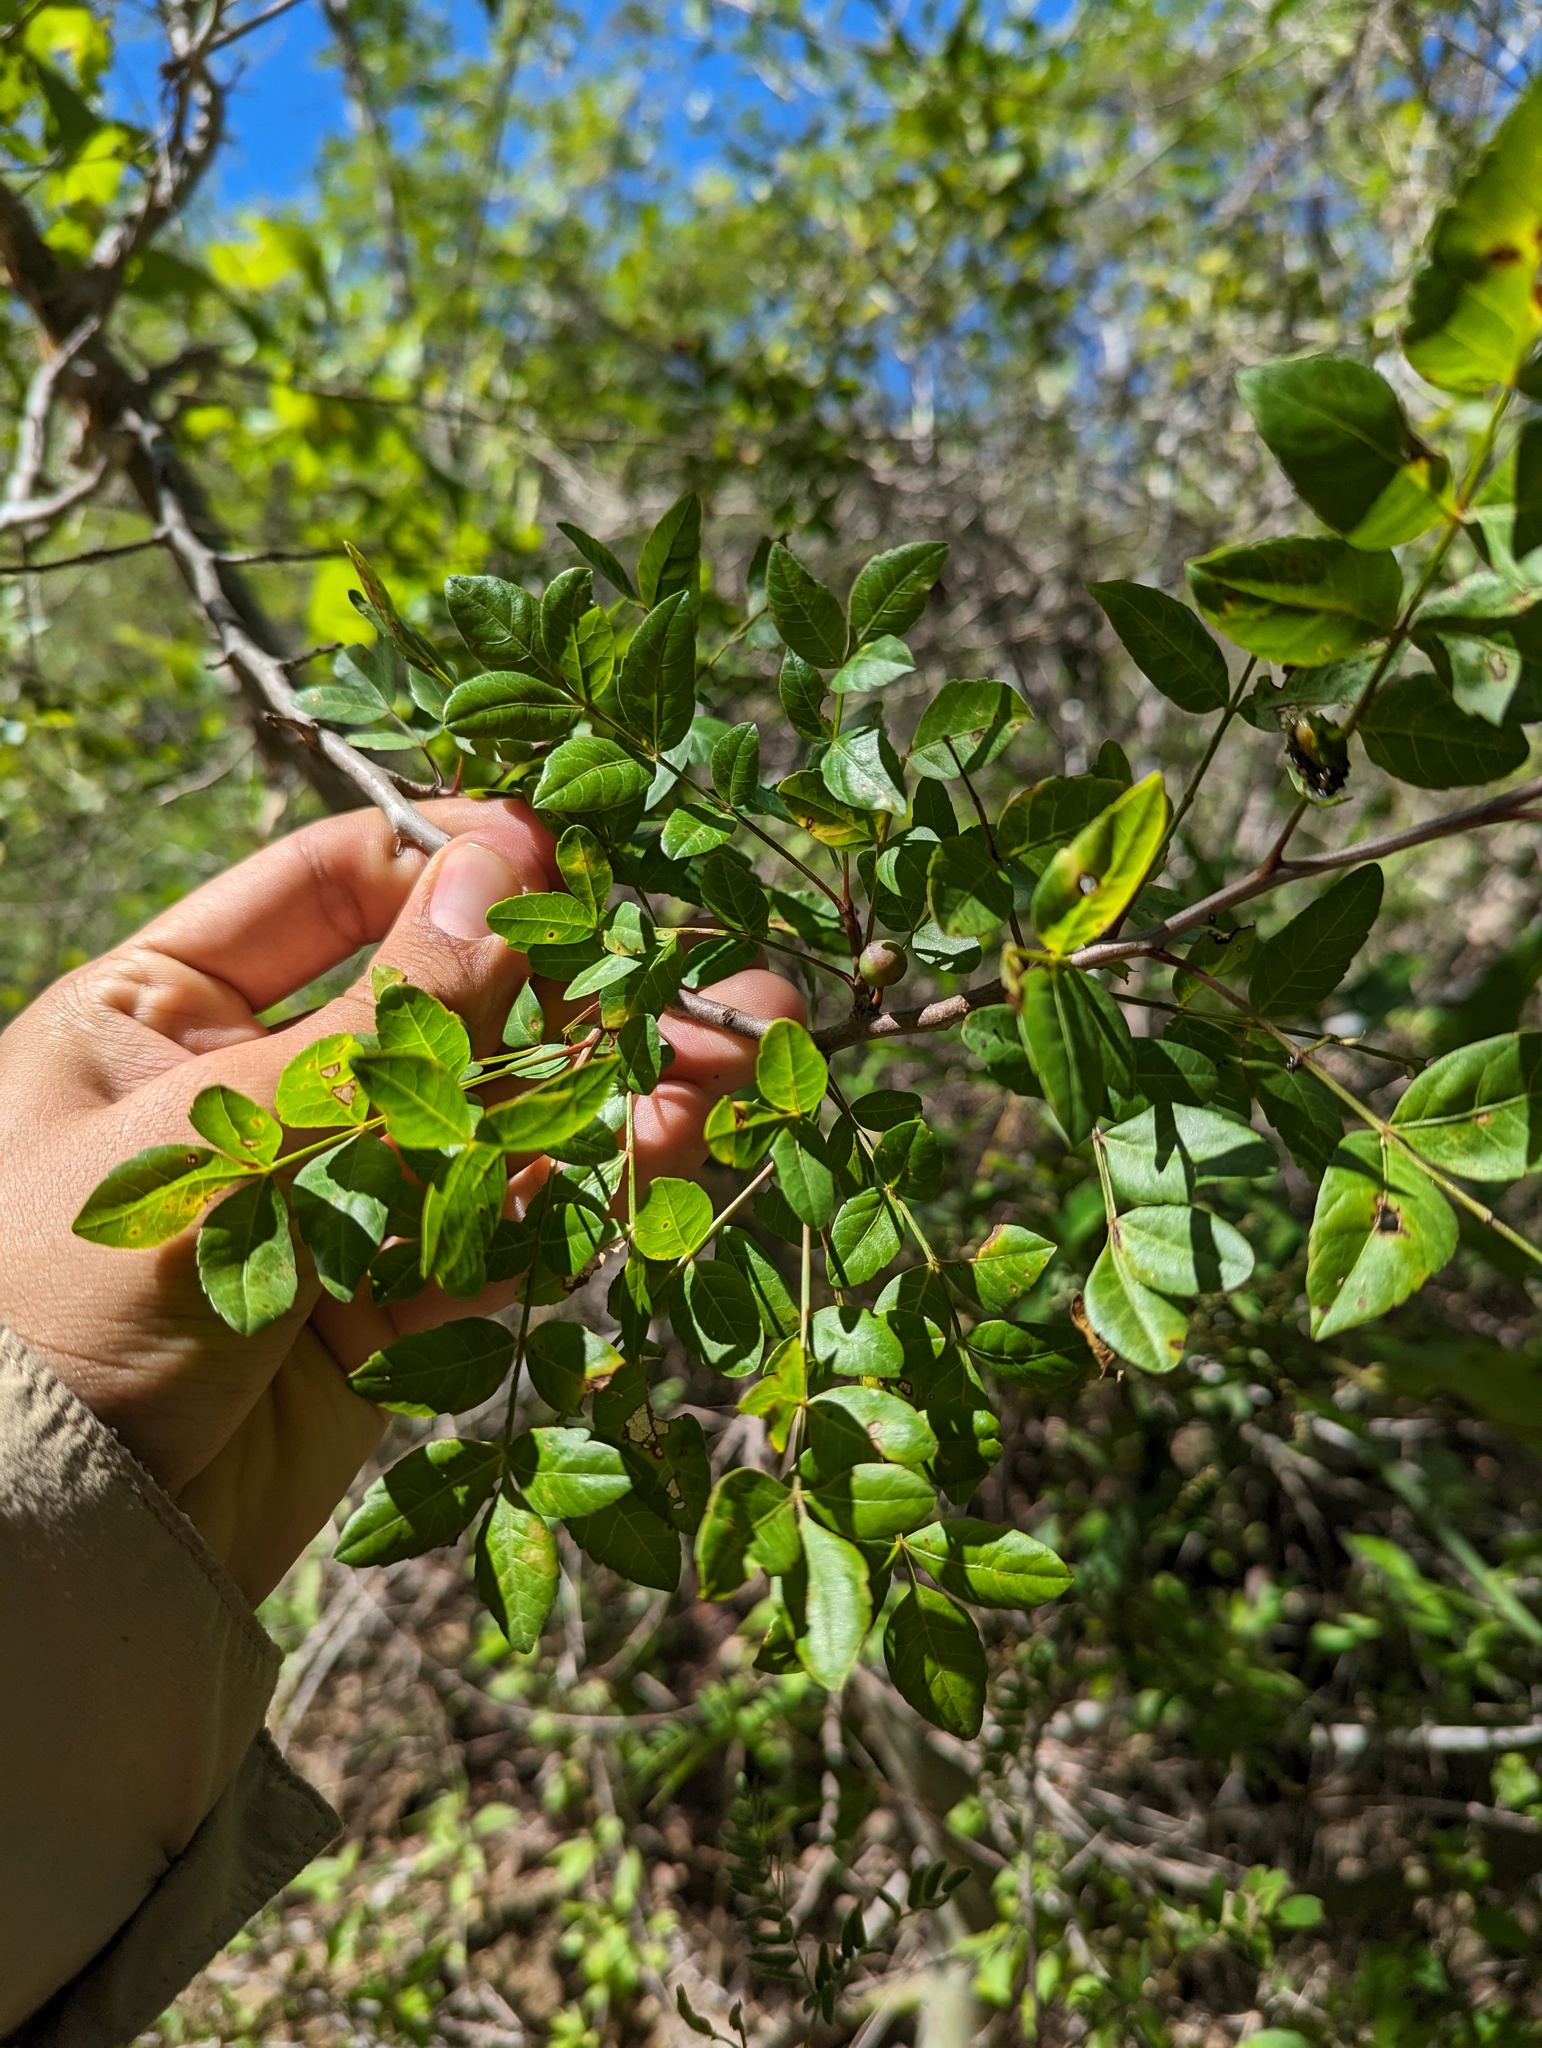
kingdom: Plantae
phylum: Tracheophyta
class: Magnoliopsida
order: Sapindales
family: Burseraceae
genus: Bursera
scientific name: Bursera fagaroides
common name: Elephant tree
